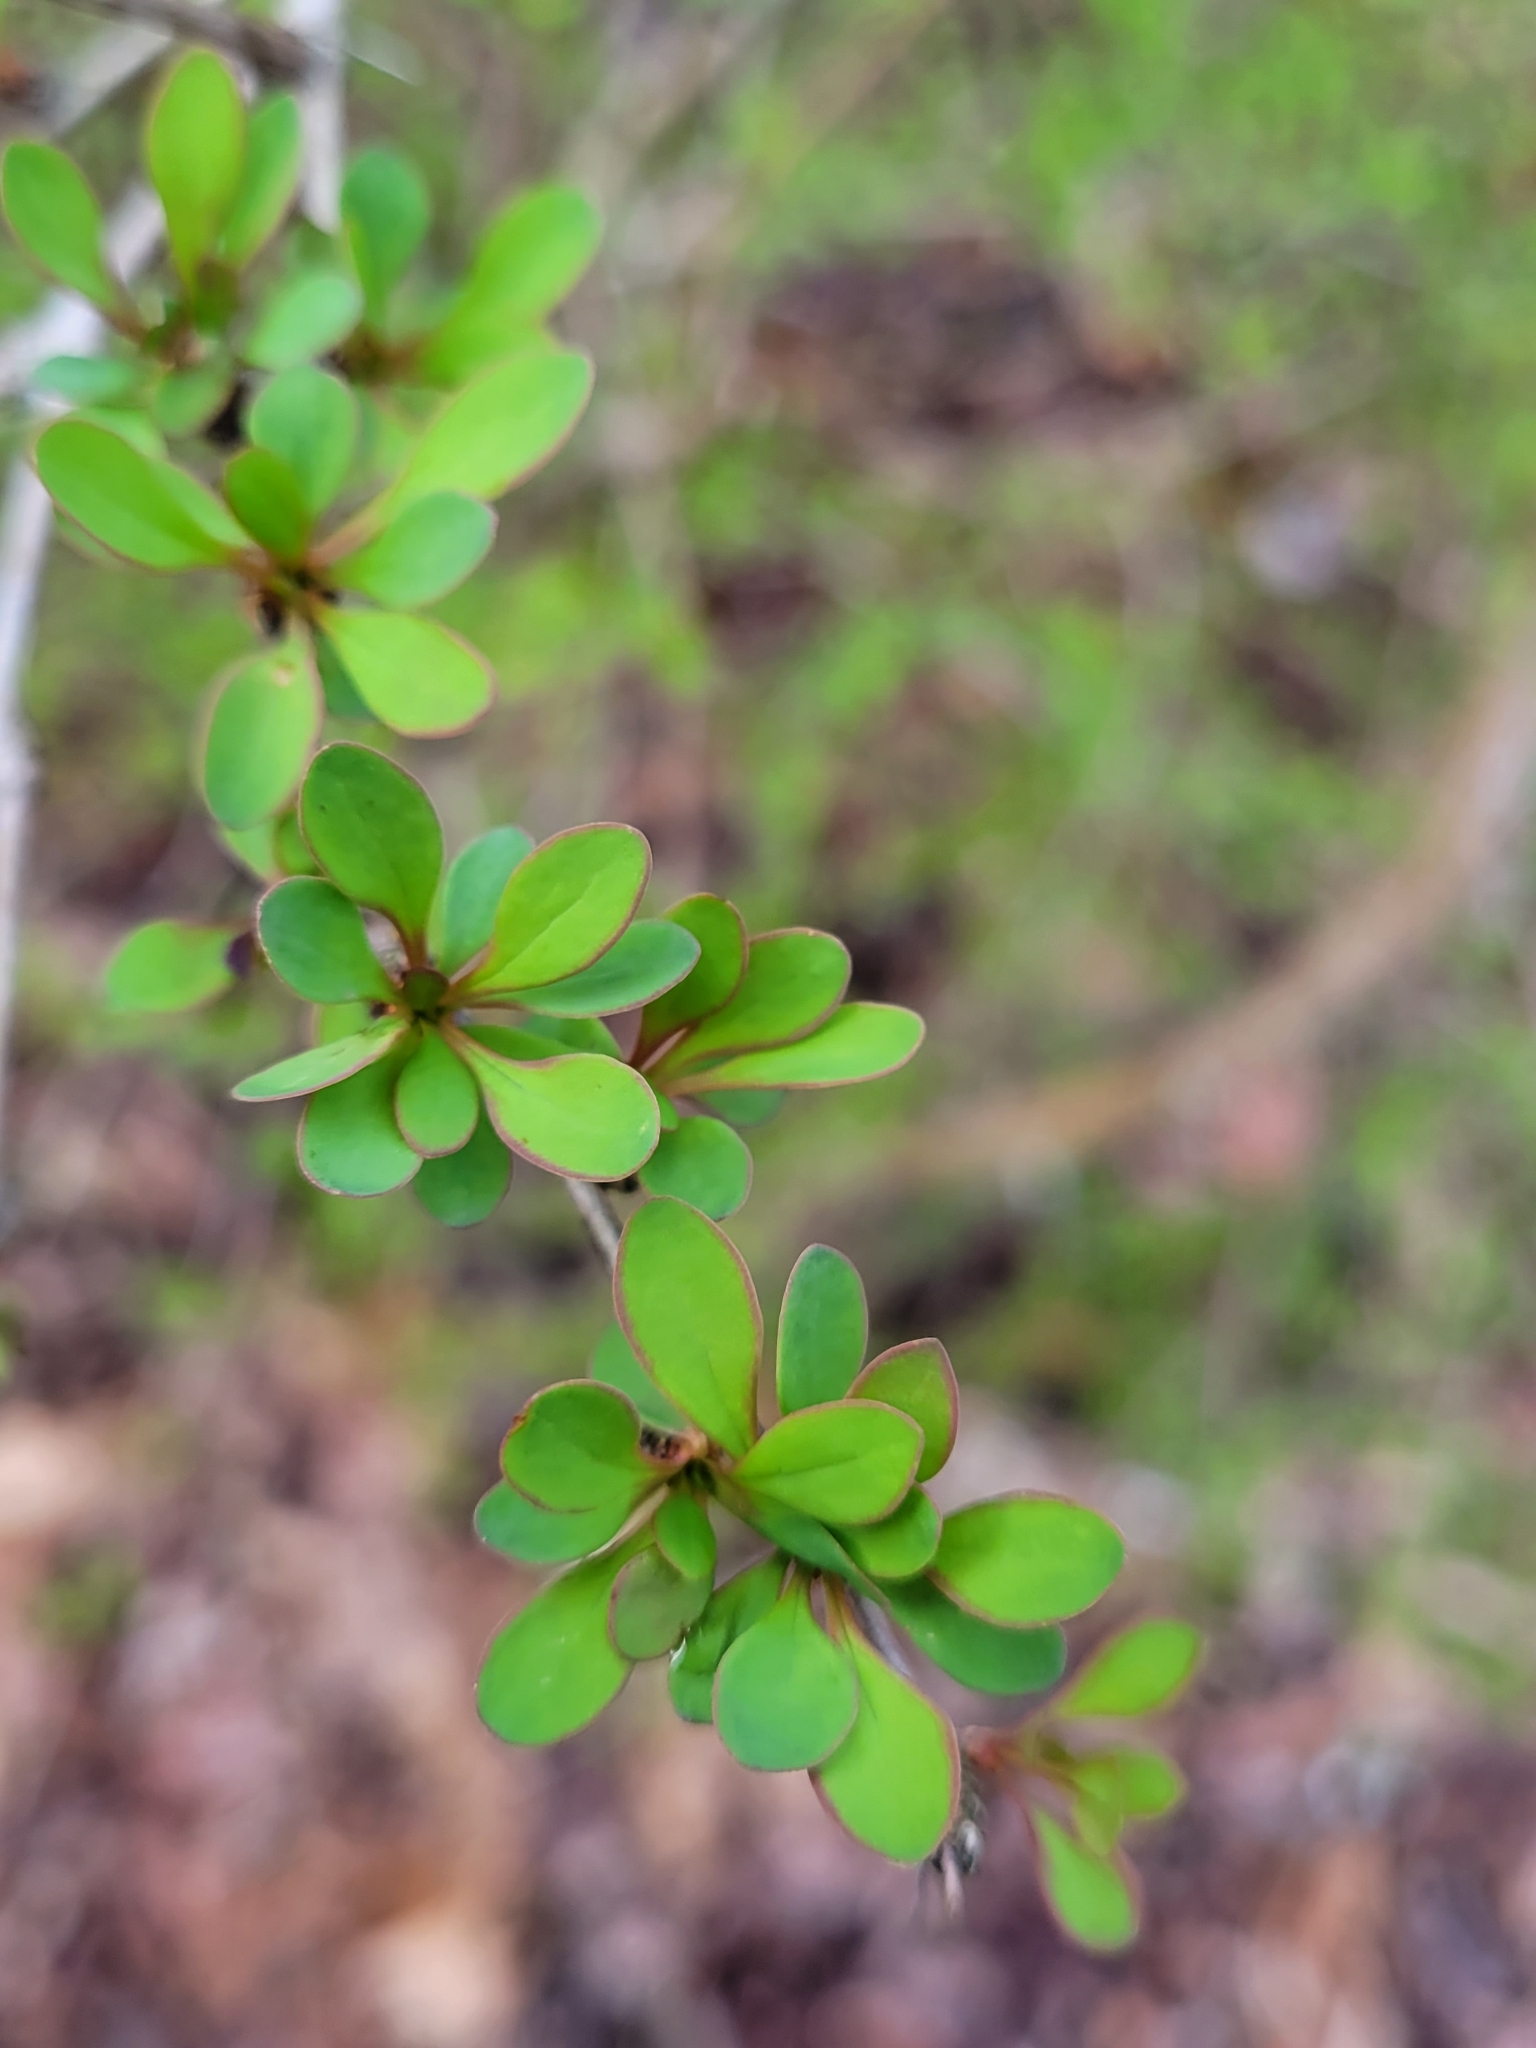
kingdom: Plantae
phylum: Tracheophyta
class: Magnoliopsida
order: Ranunculales
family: Berberidaceae
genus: Berberis
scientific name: Berberis thunbergii
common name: Japanese barberry
